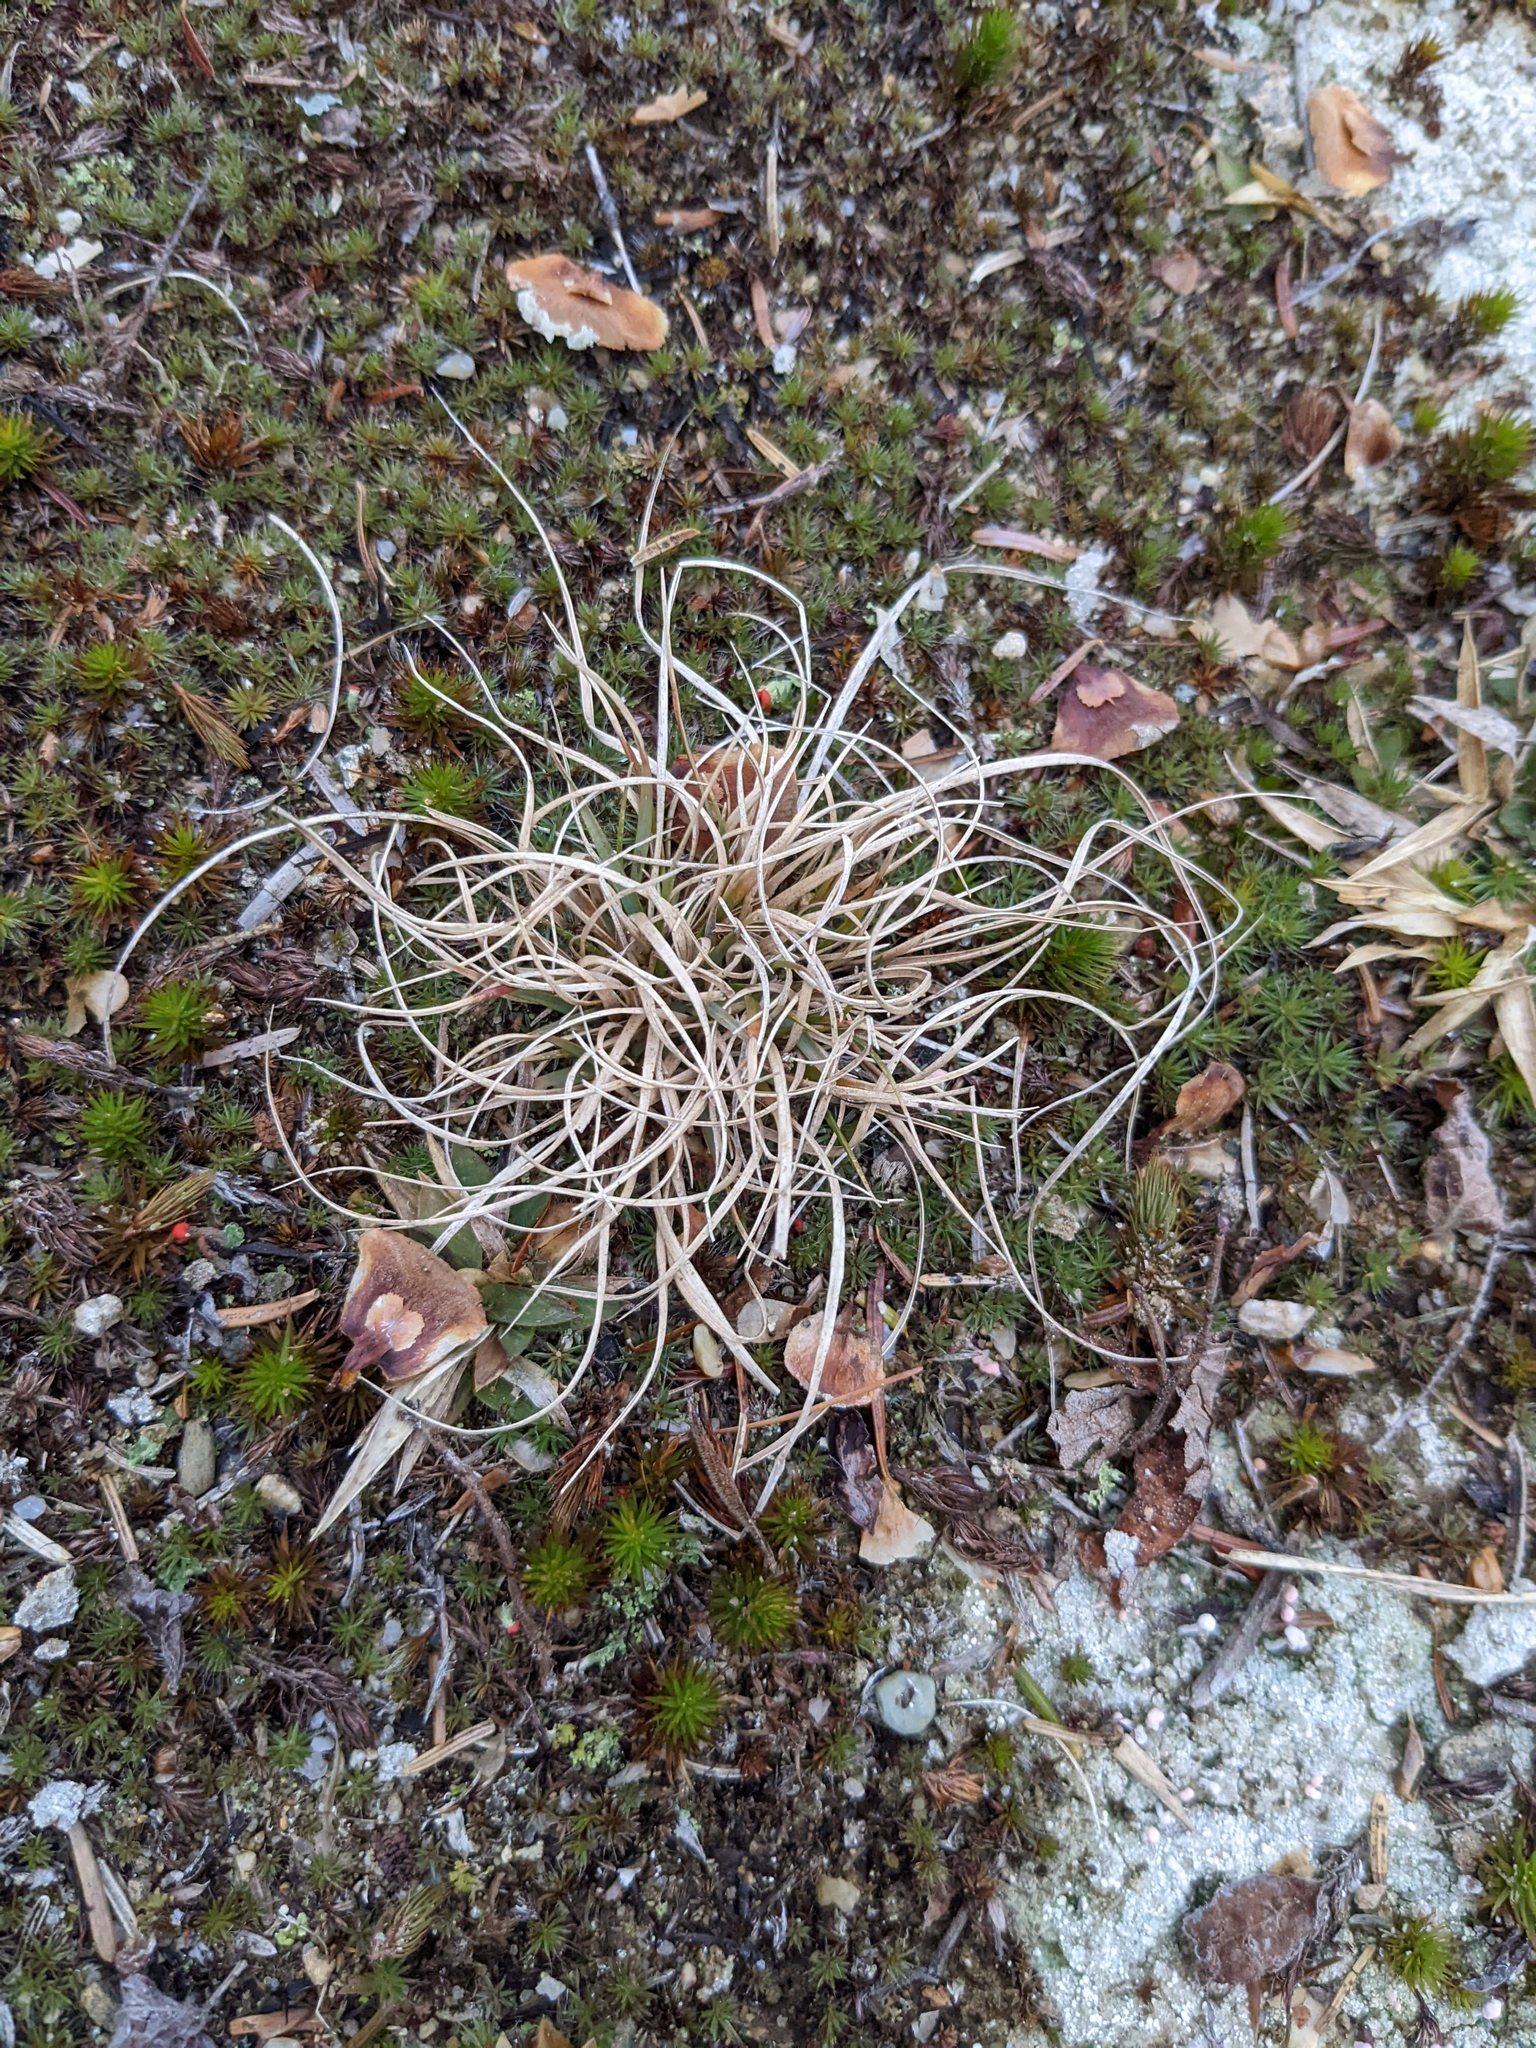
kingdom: Plantae
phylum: Tracheophyta
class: Liliopsida
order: Poales
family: Poaceae
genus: Danthonia
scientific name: Danthonia spicata
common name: Common wild oatgrass
